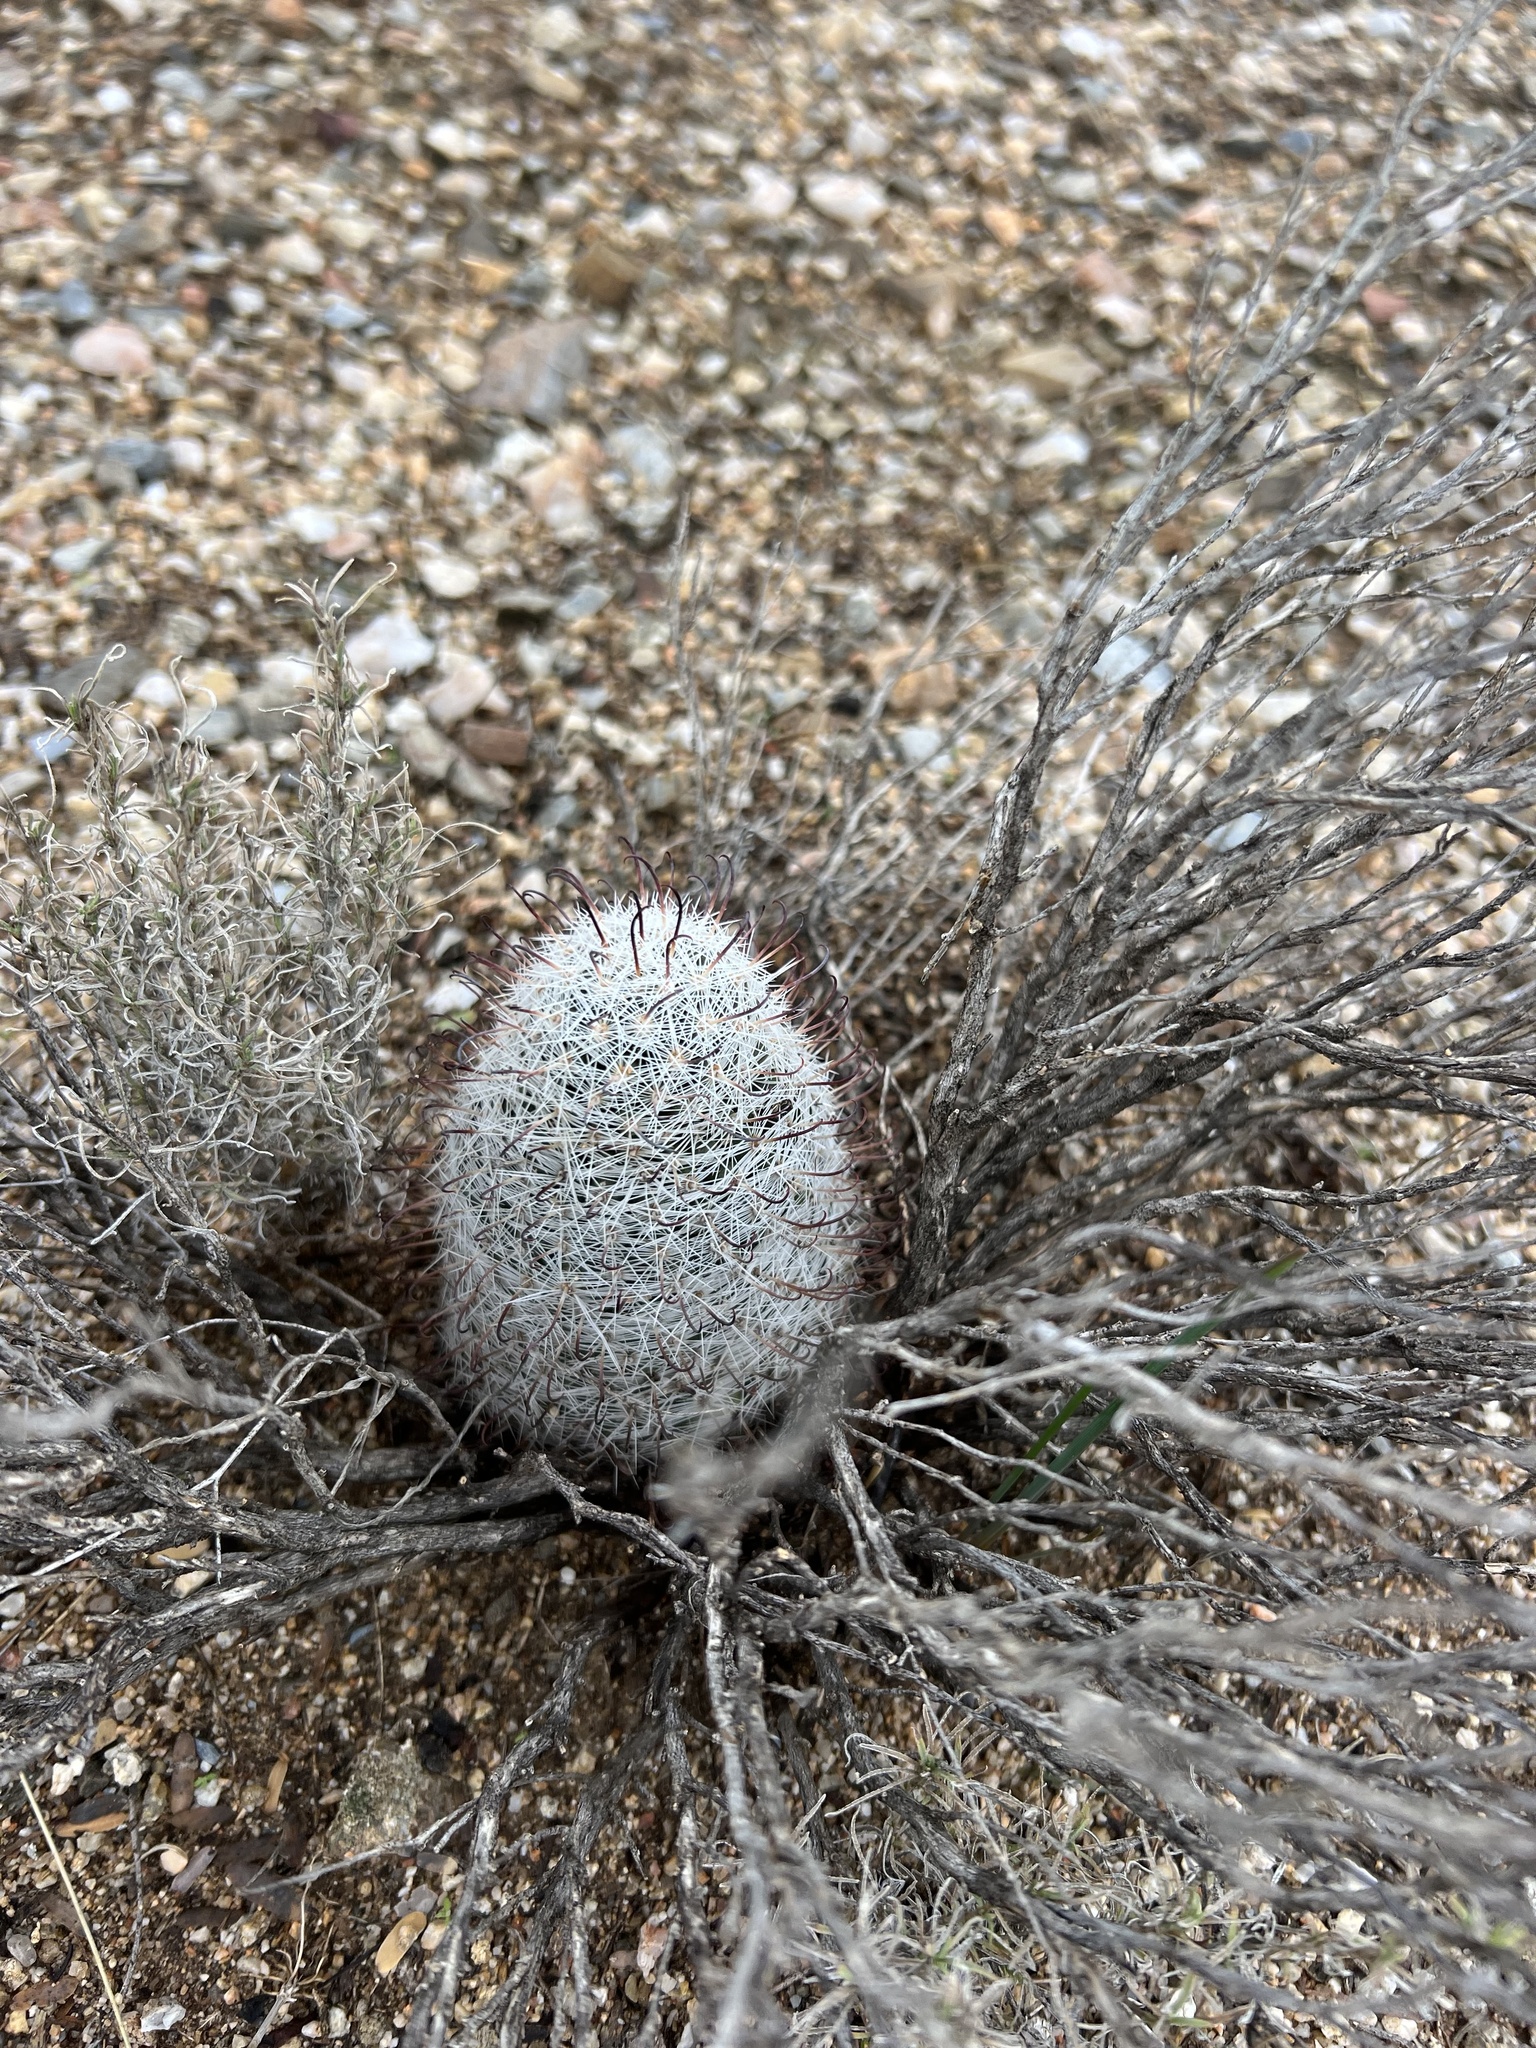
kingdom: Plantae
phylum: Tracheophyta
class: Magnoliopsida
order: Caryophyllales
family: Cactaceae
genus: Cochemiea
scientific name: Cochemiea grahamii
